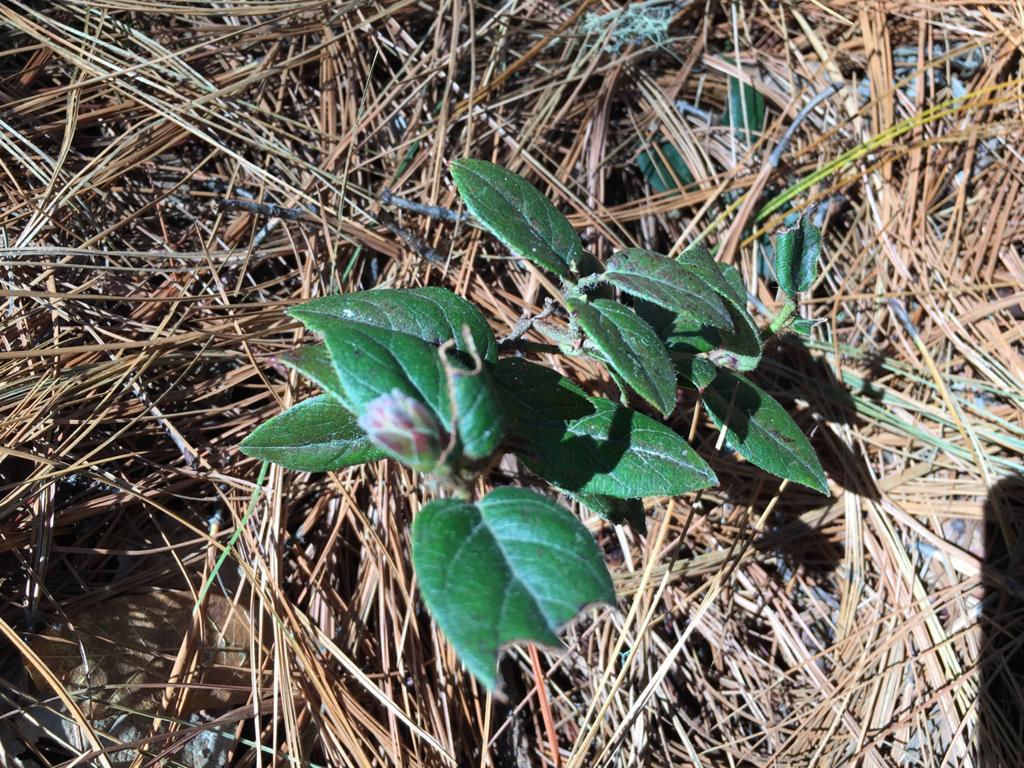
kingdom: Plantae
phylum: Tracheophyta
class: Magnoliopsida
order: Ericales
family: Ericaceae
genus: Gaultheria
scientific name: Gaultheria erecta
